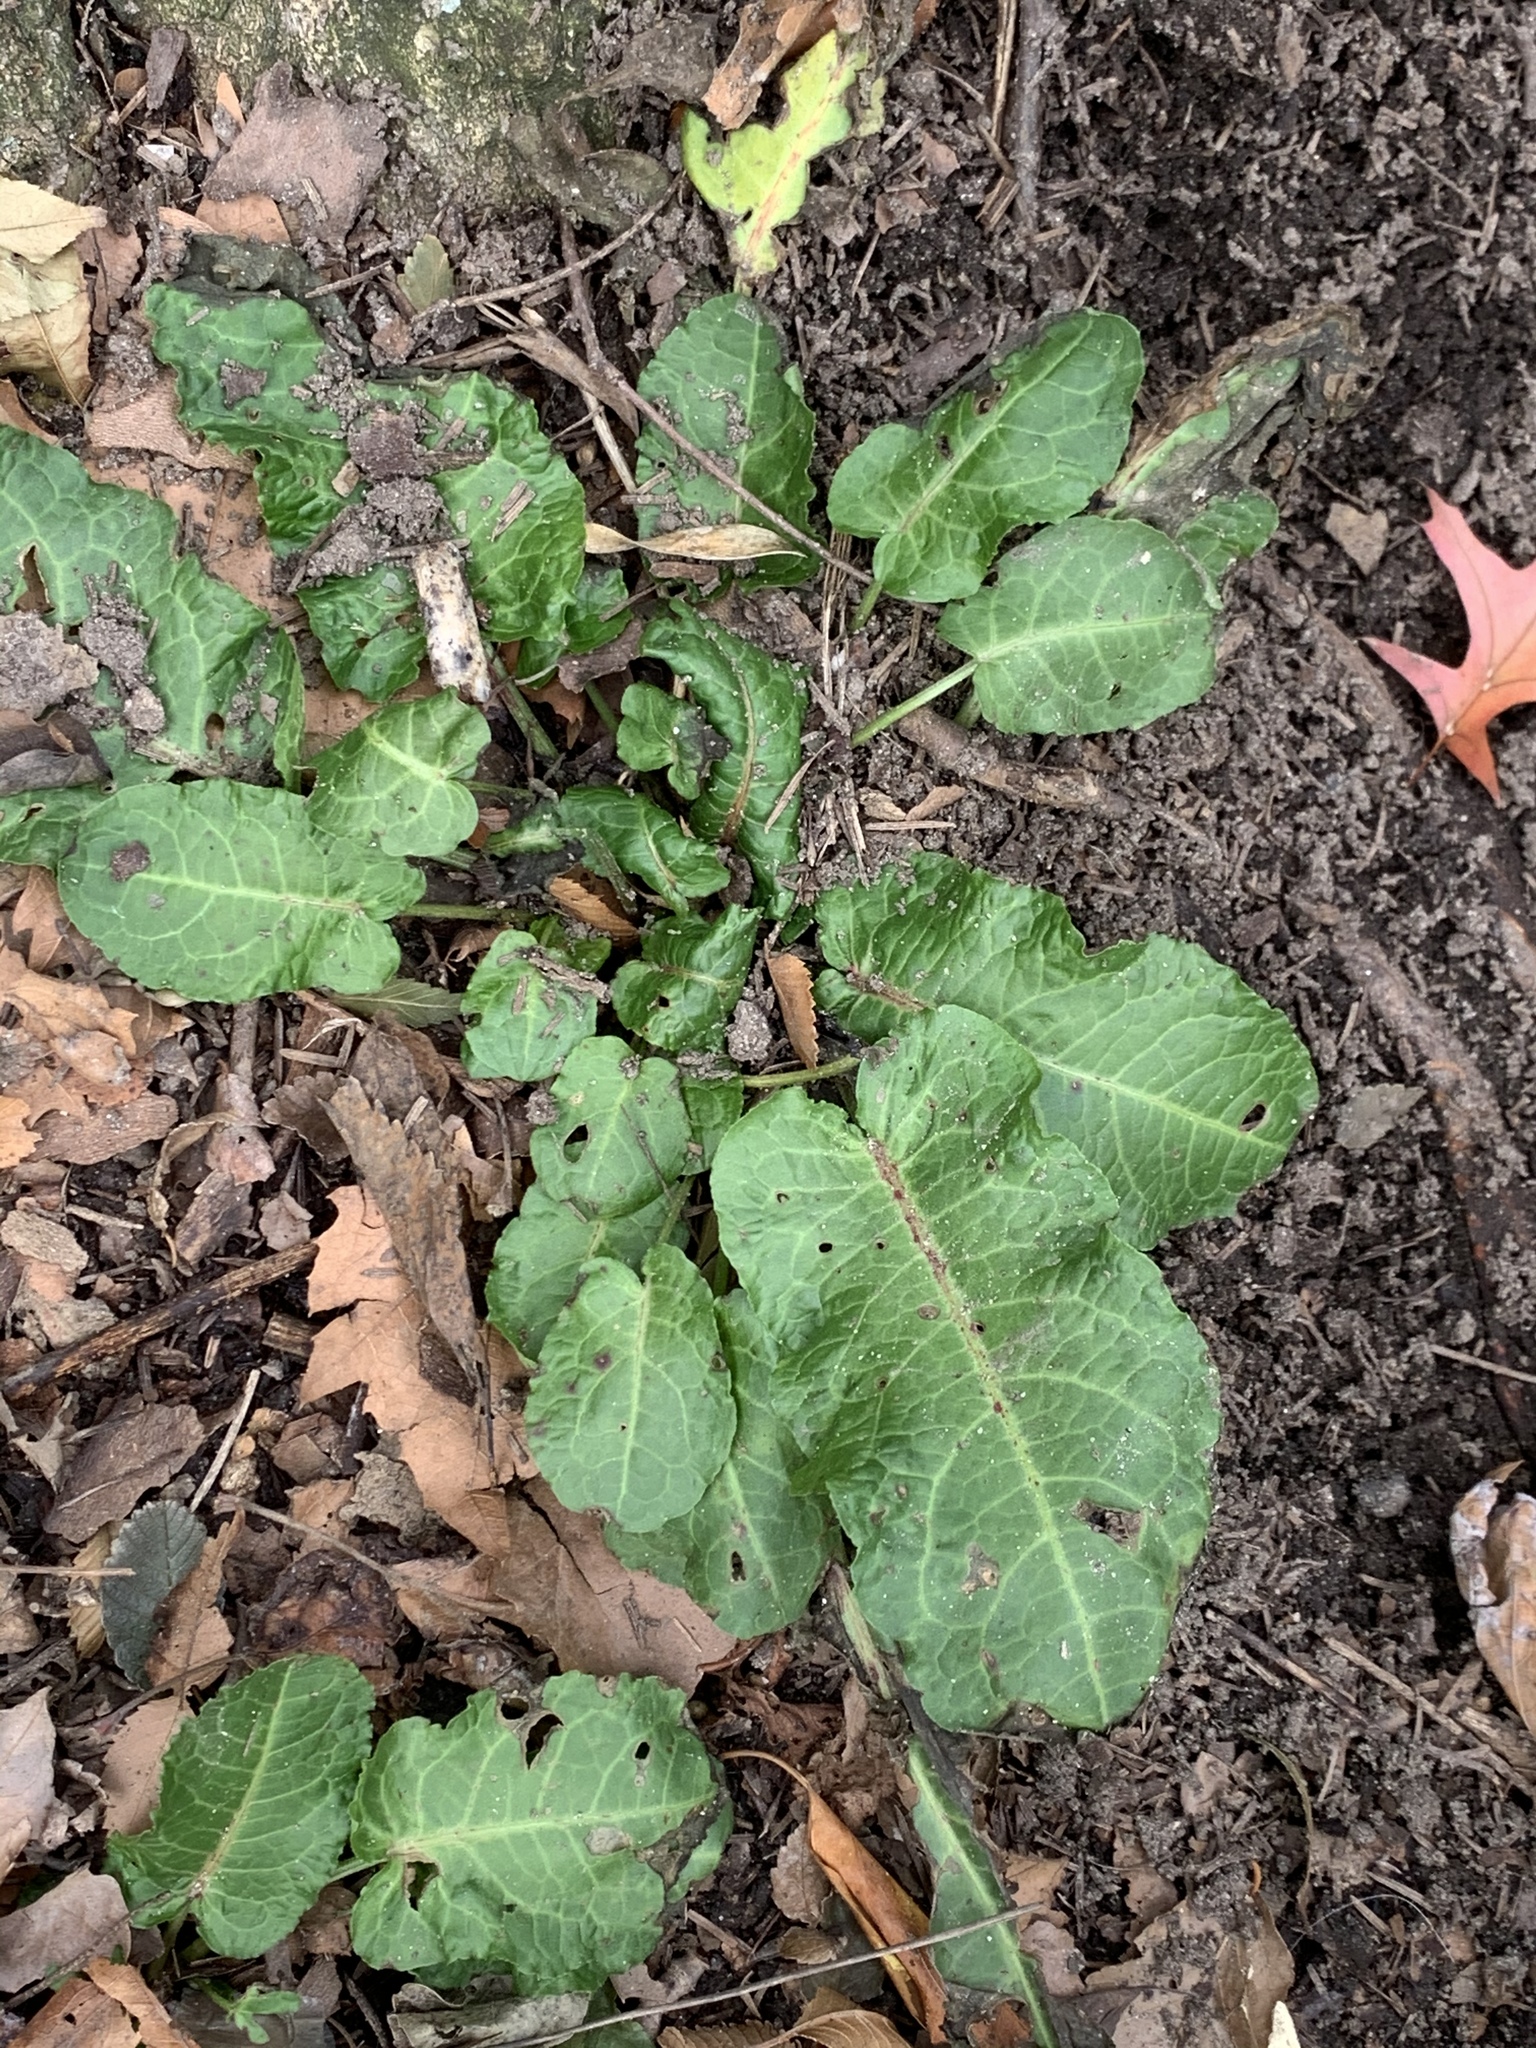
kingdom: Plantae
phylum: Tracheophyta
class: Magnoliopsida
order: Caryophyllales
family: Polygonaceae
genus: Rumex
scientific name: Rumex obtusifolius
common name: Bitter dock
